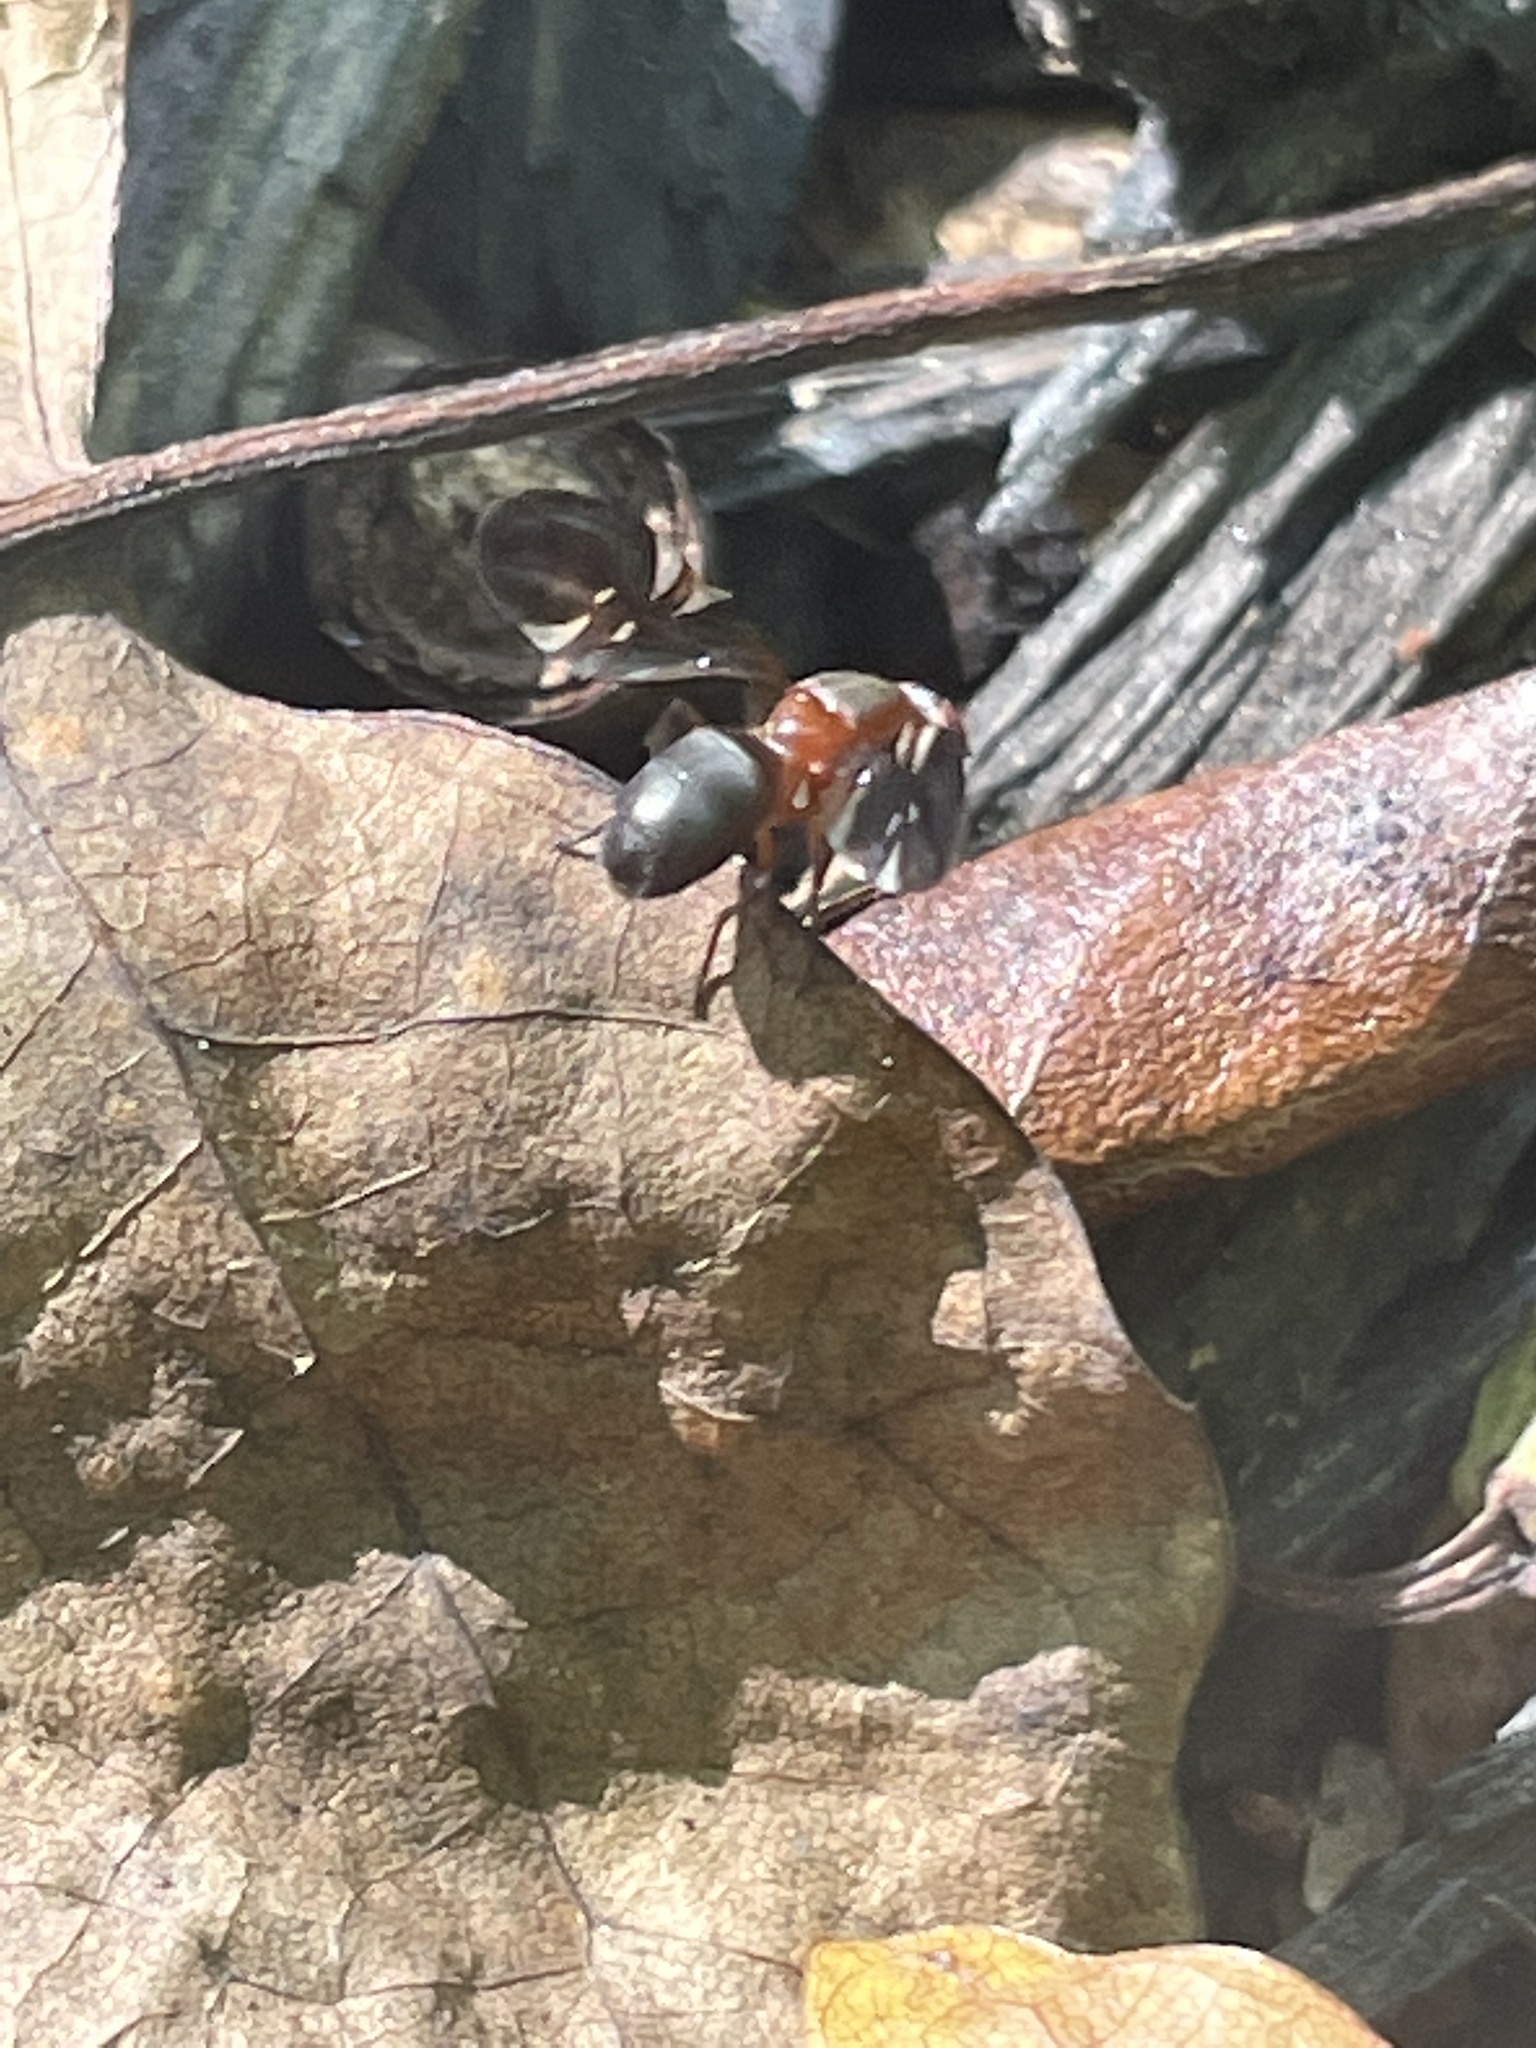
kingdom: Animalia
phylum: Arthropoda
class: Insecta
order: Diptera
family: Ulidiidae
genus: Delphinia
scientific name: Delphinia picta
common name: Common picture-winged fly
